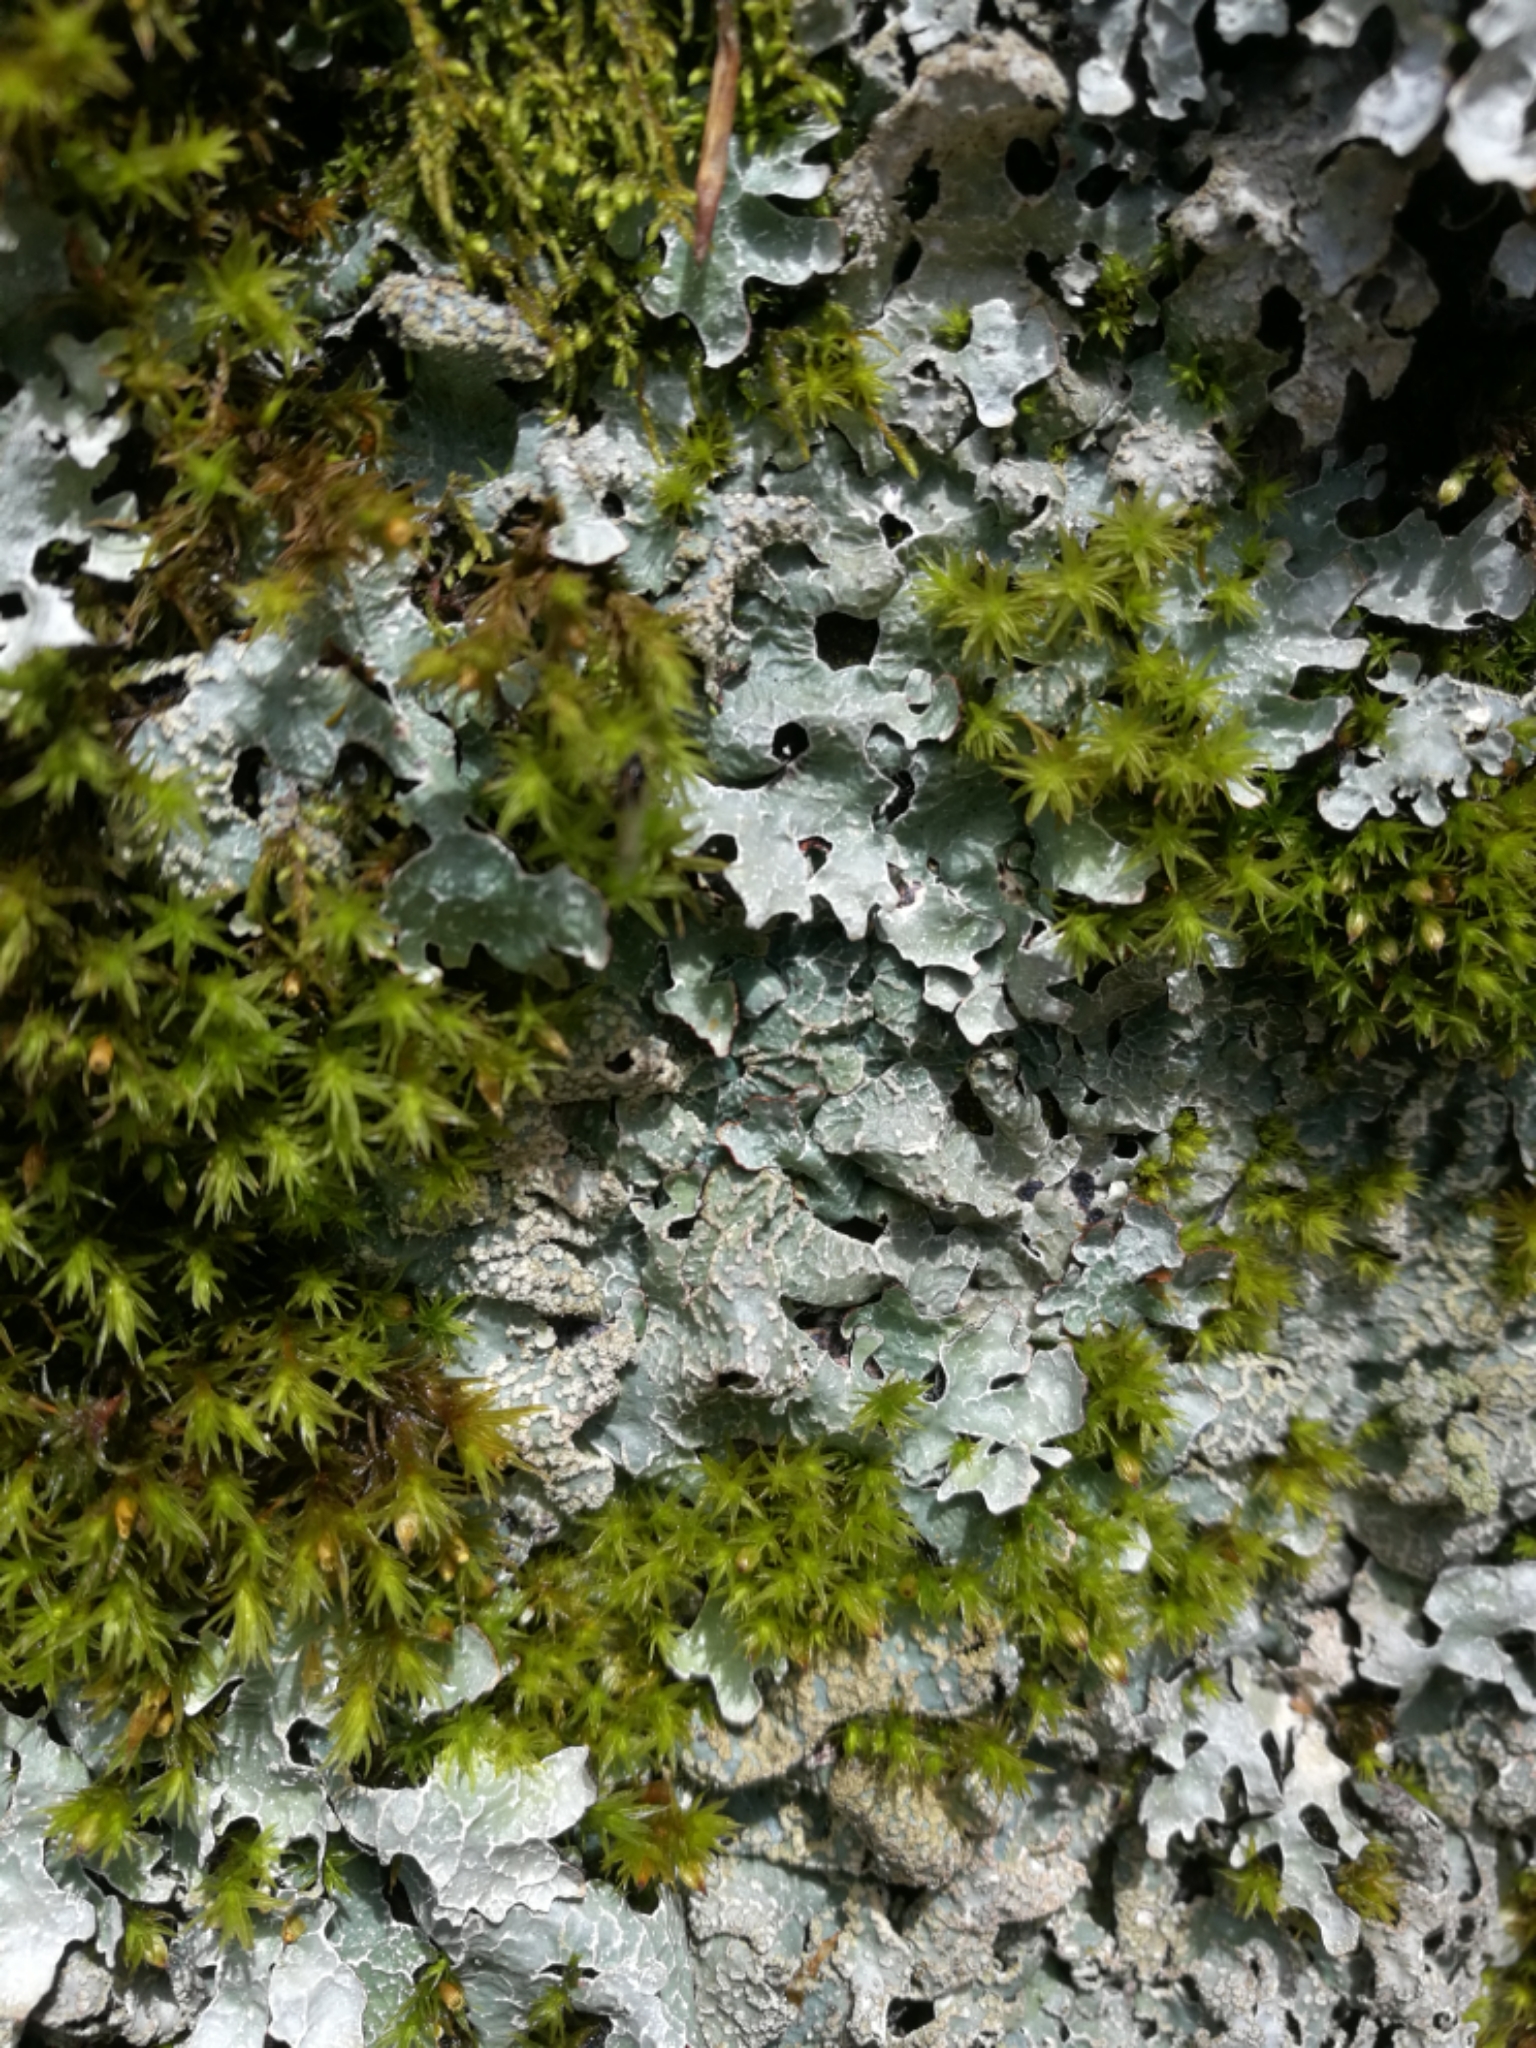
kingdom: Fungi
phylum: Ascomycota
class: Lecanoromycetes
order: Lecanorales
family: Parmeliaceae
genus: Parmelia
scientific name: Parmelia sulcata
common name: Netted shield lichen
